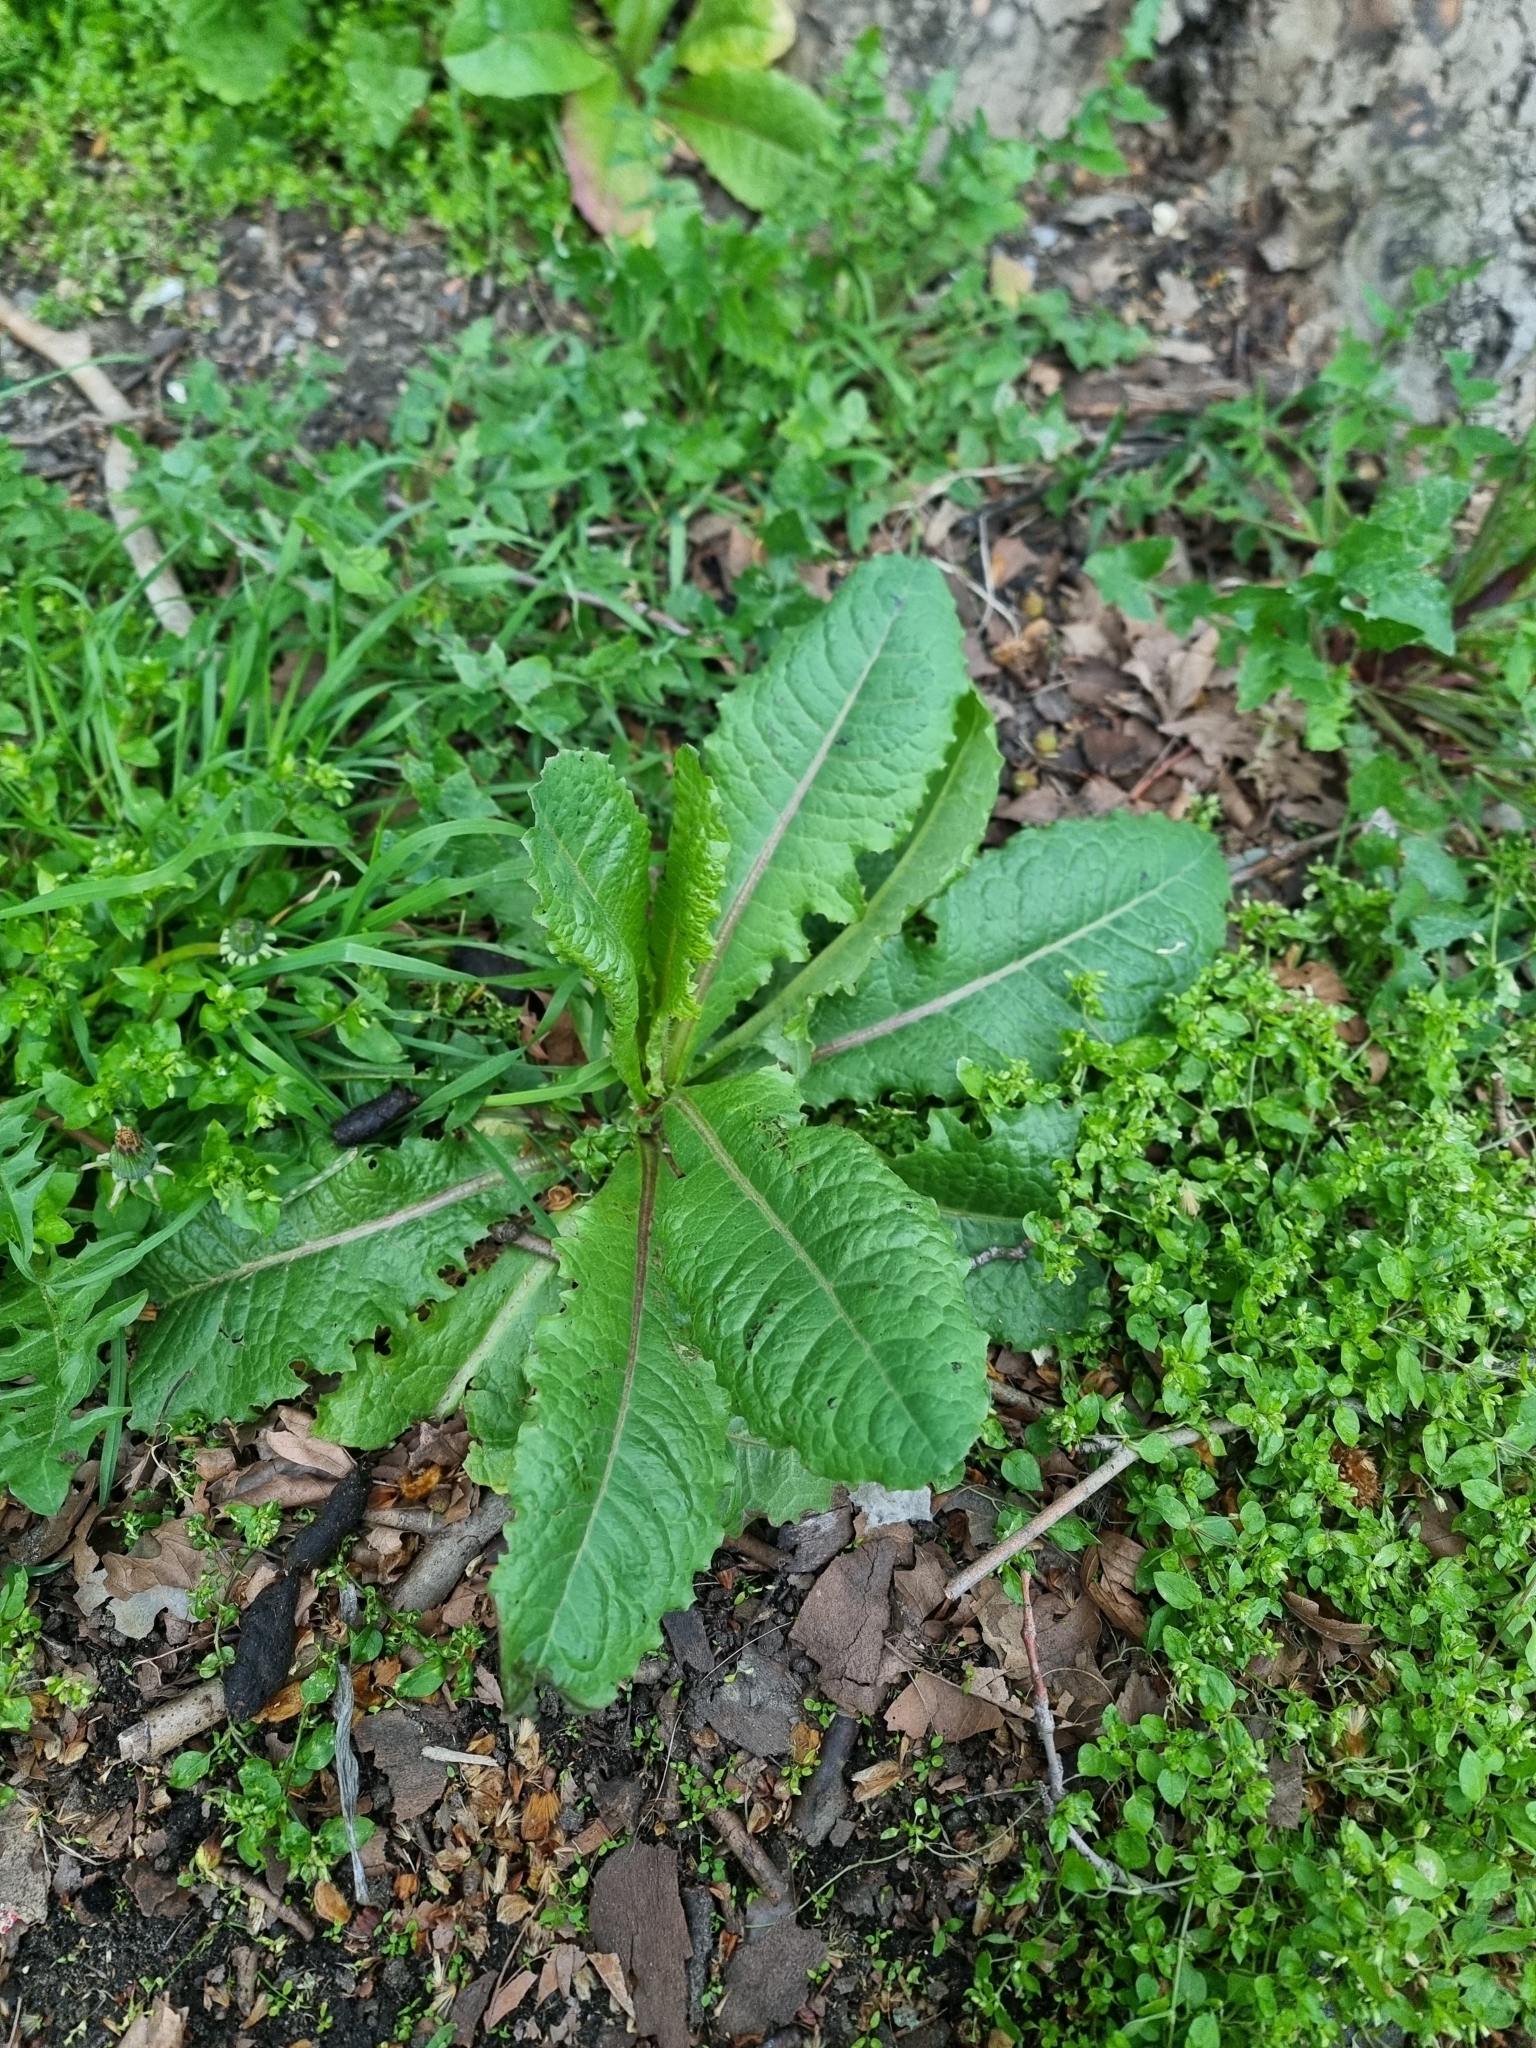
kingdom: Plantae
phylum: Tracheophyta
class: Magnoliopsida
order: Asterales
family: Asteraceae
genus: Lactuca
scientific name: Lactuca virosa
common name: Great lettuce
